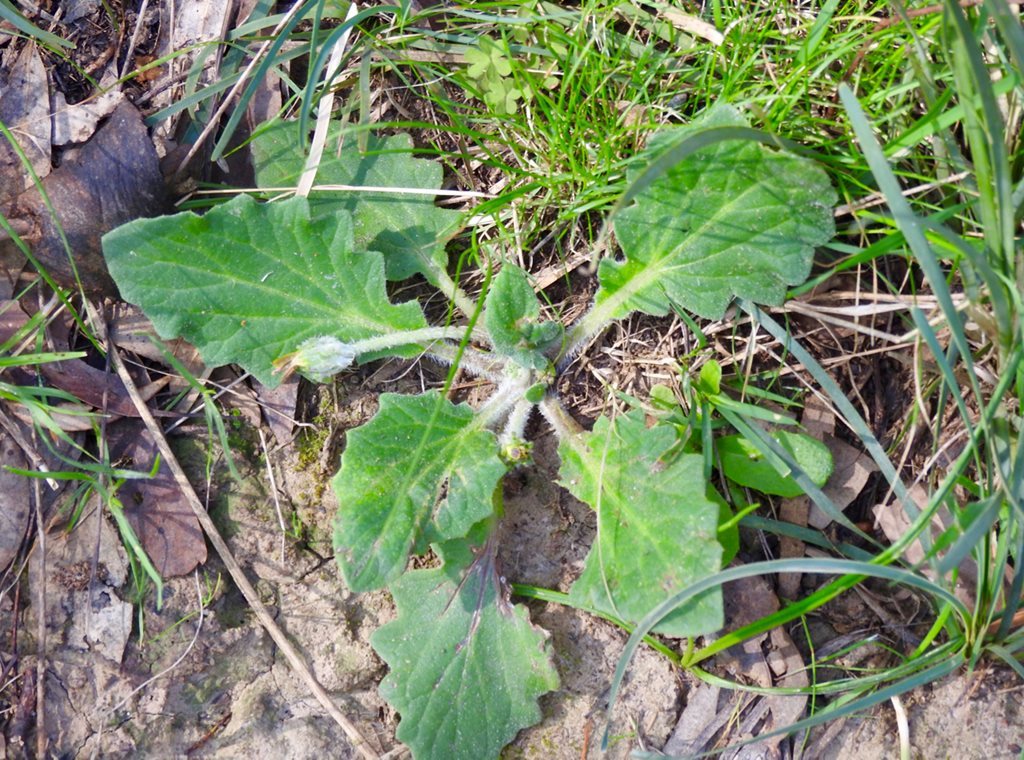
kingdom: Plantae
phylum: Tracheophyta
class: Magnoliopsida
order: Asterales
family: Asteraceae
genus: Cymbonotus
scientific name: Cymbonotus preissianus
